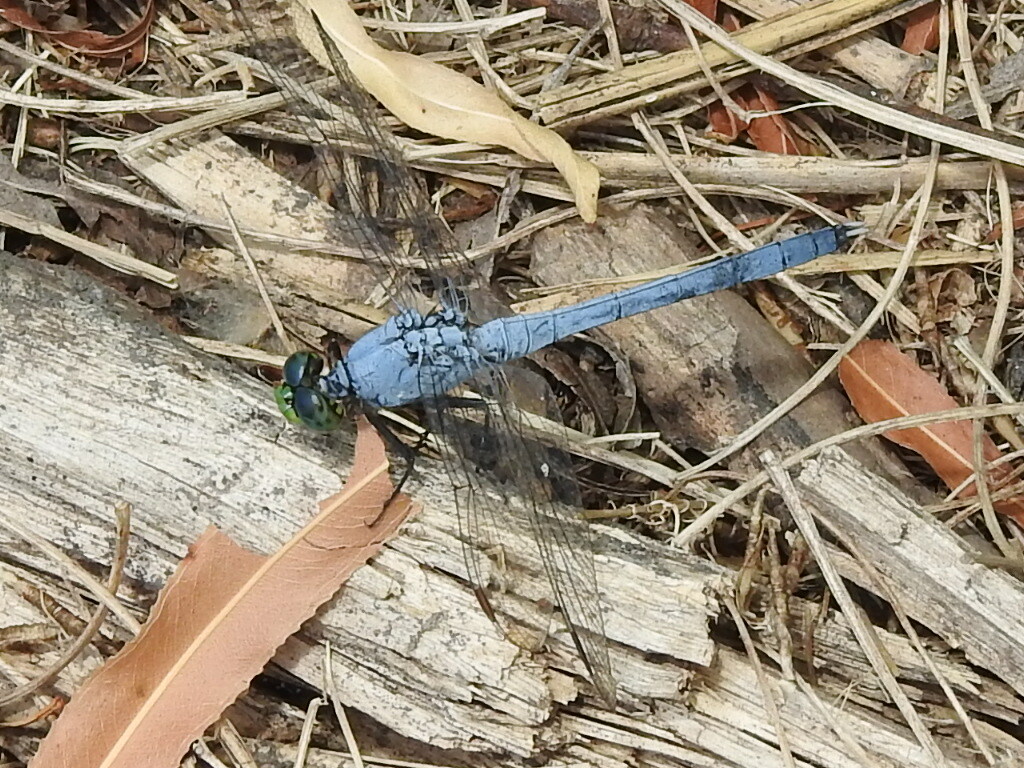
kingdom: Animalia
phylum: Arthropoda
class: Insecta
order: Odonata
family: Libellulidae
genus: Erythemis
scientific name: Erythemis simplicicollis
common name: Eastern pondhawk
